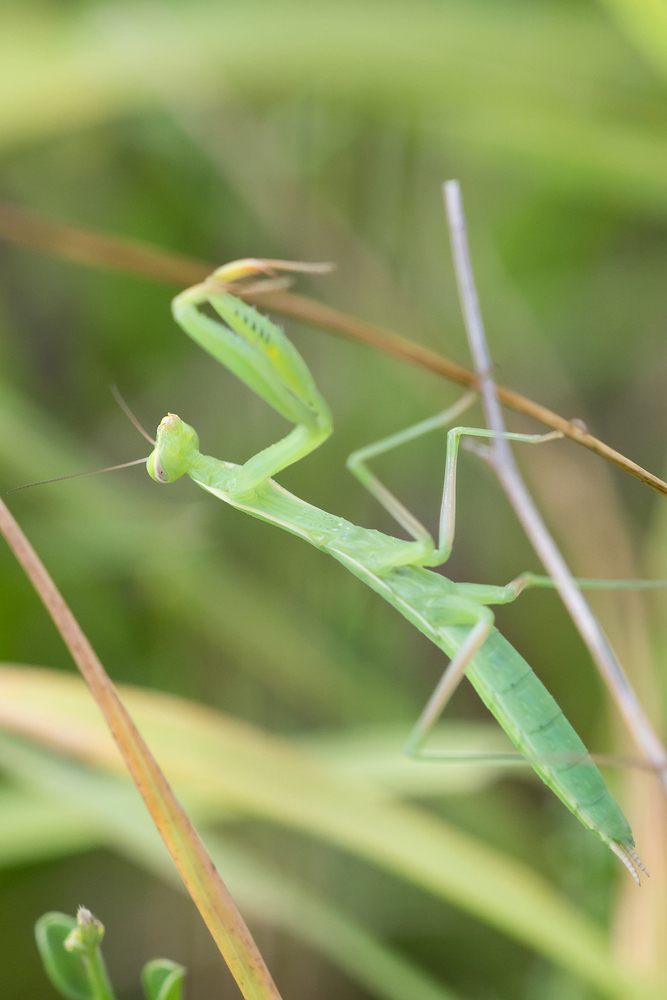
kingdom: Animalia
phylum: Arthropoda
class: Insecta
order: Mantodea
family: Mantidae
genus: Mantis
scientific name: Mantis religiosa
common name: Praying mantis
